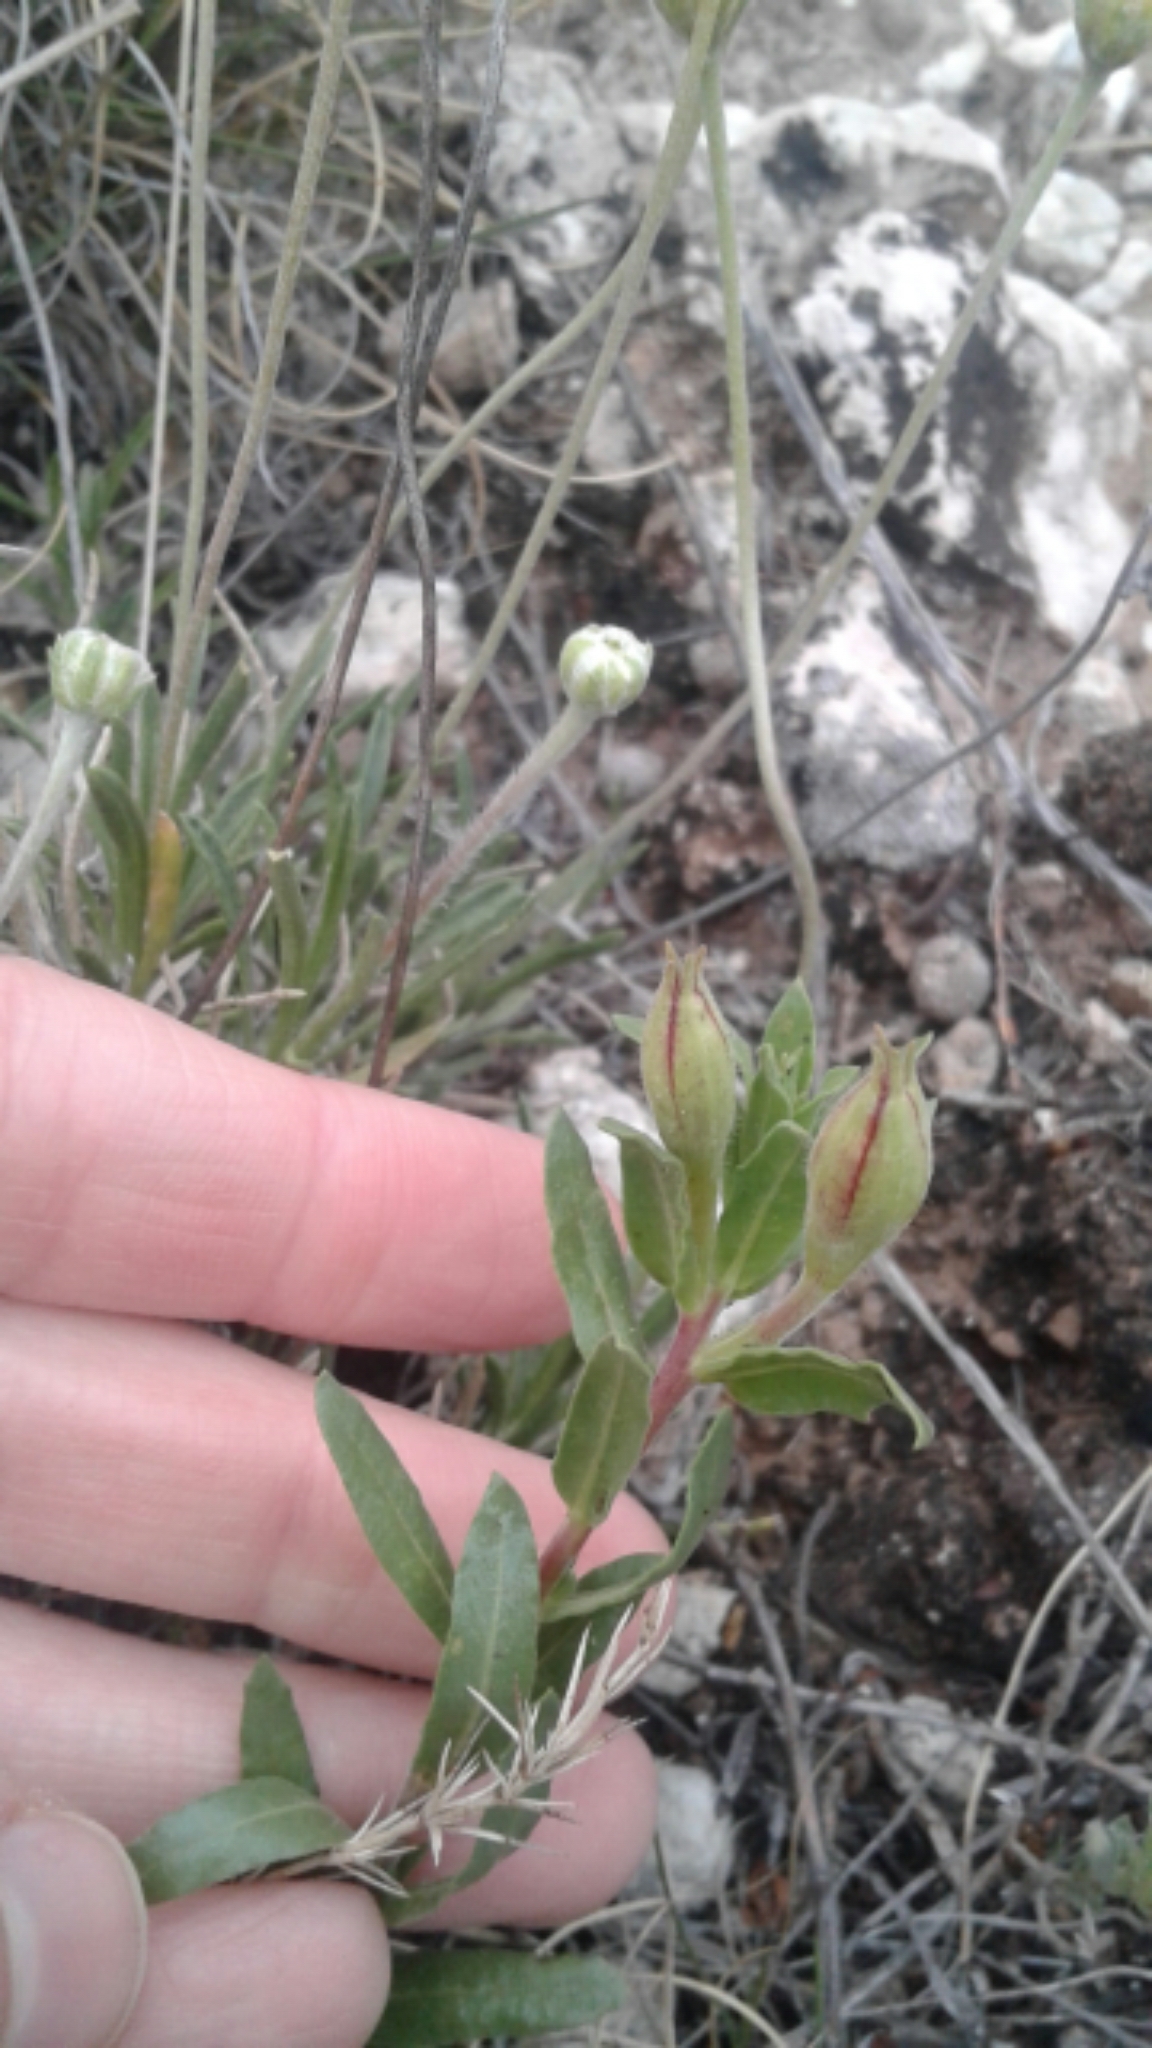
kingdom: Plantae
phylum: Tracheophyta
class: Magnoliopsida
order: Myrtales
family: Onagraceae
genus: Oenothera
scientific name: Oenothera hartwegii
